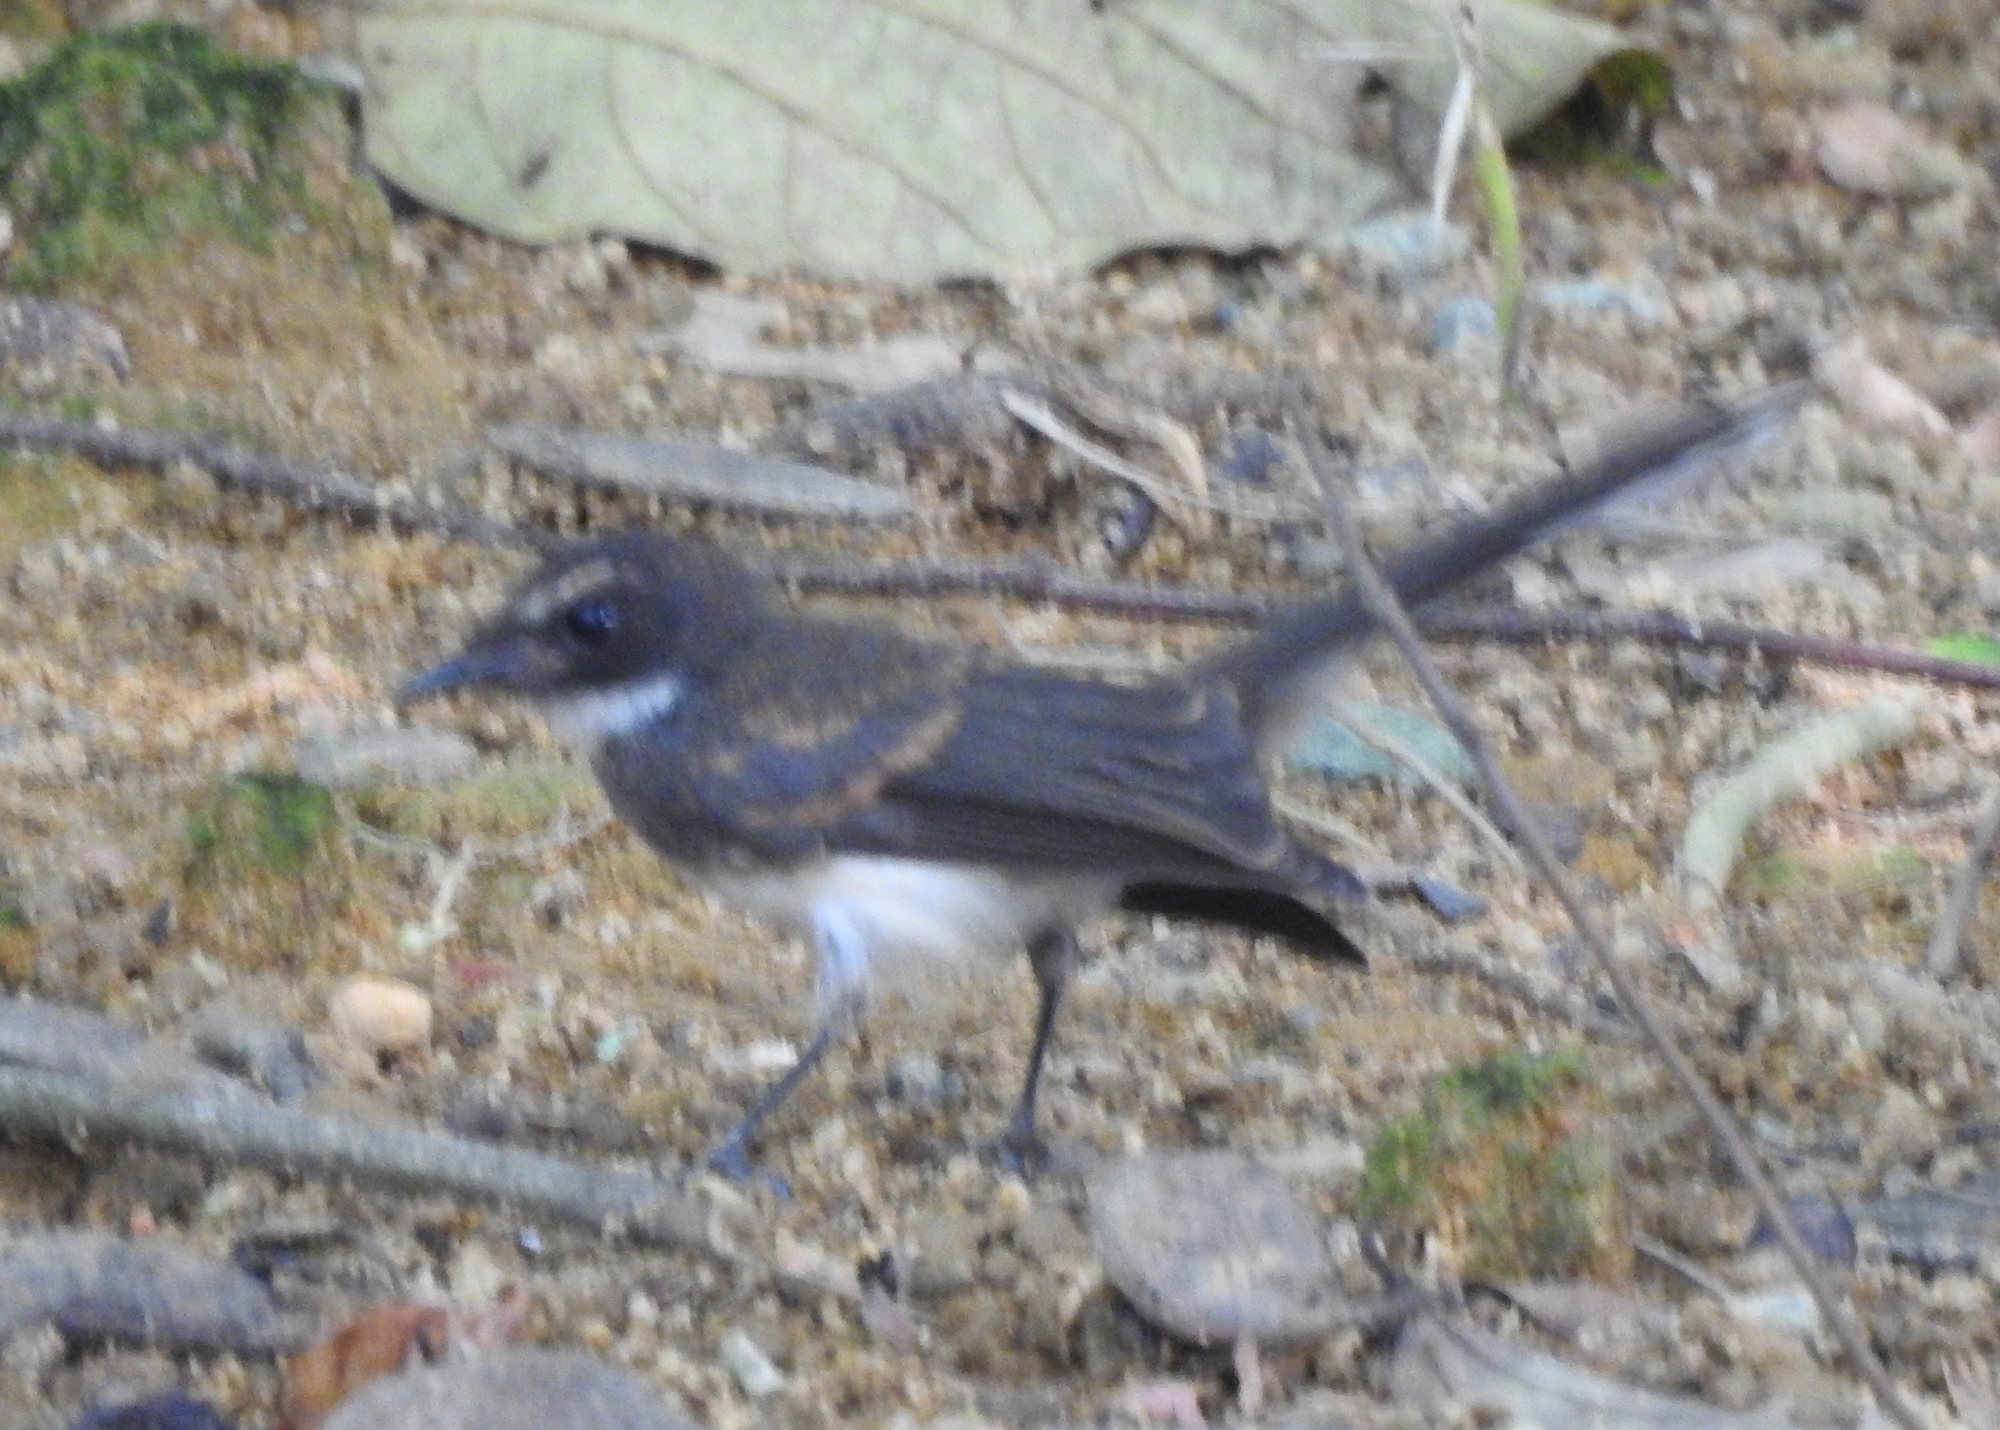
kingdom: Animalia
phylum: Chordata
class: Aves
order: Passeriformes
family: Rhipiduridae
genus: Rhipidura
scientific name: Rhipidura javanica
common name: Pied fantail
